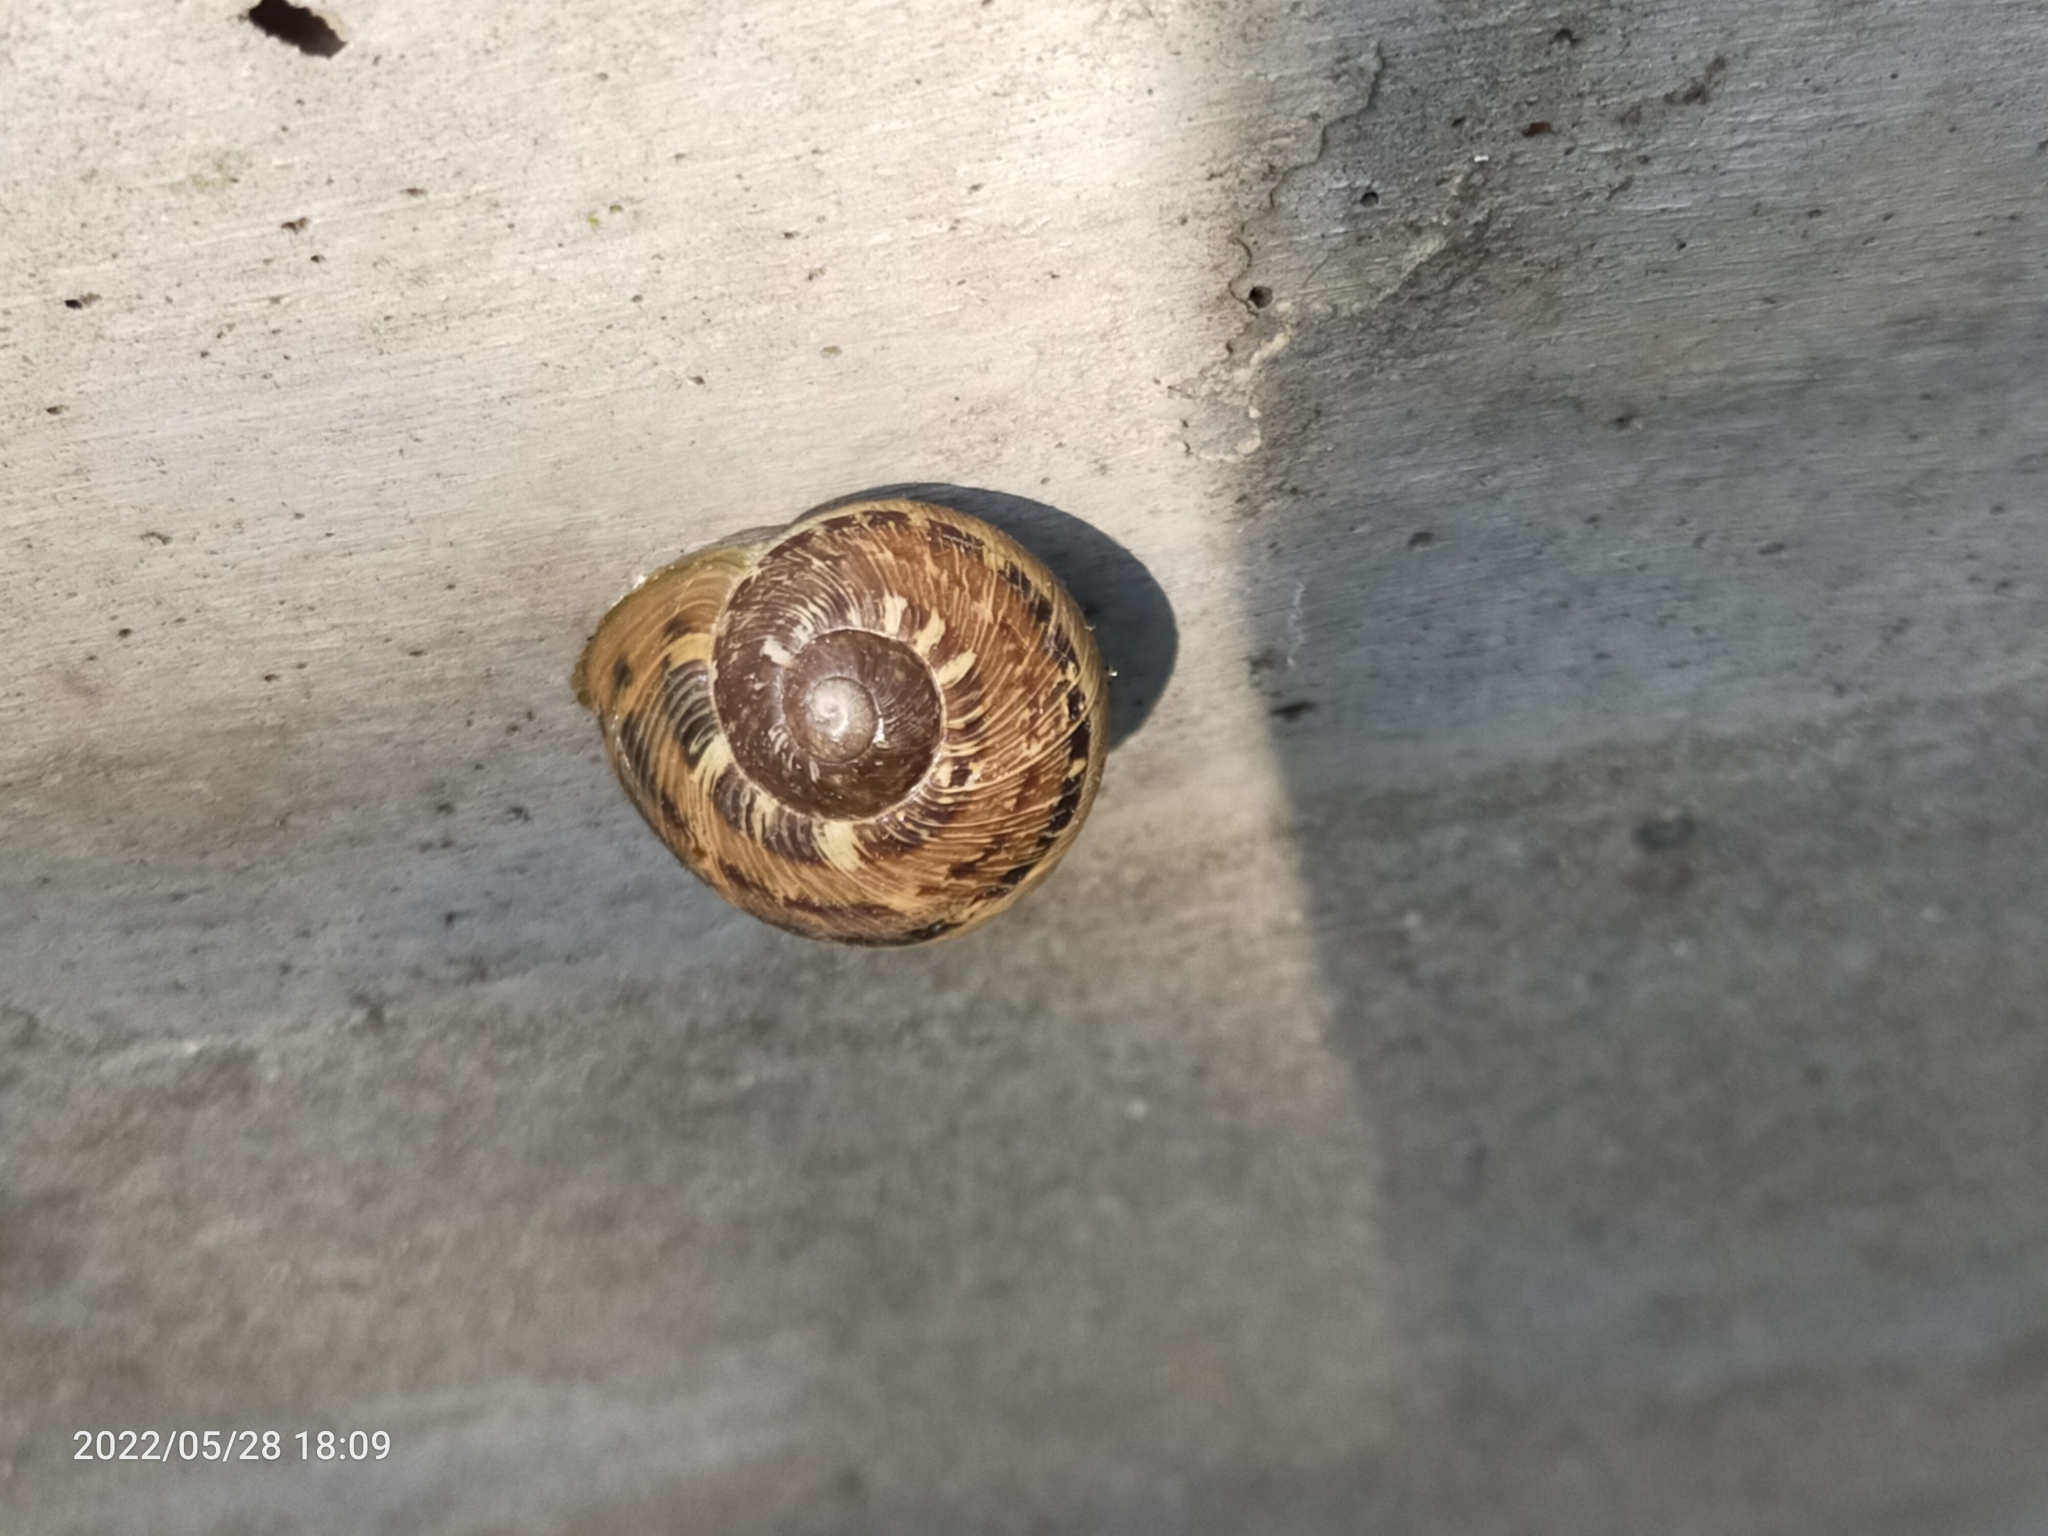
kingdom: Animalia
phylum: Mollusca
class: Gastropoda
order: Stylommatophora
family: Helicidae
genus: Cornu
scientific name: Cornu aspersum
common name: Brown garden snail
